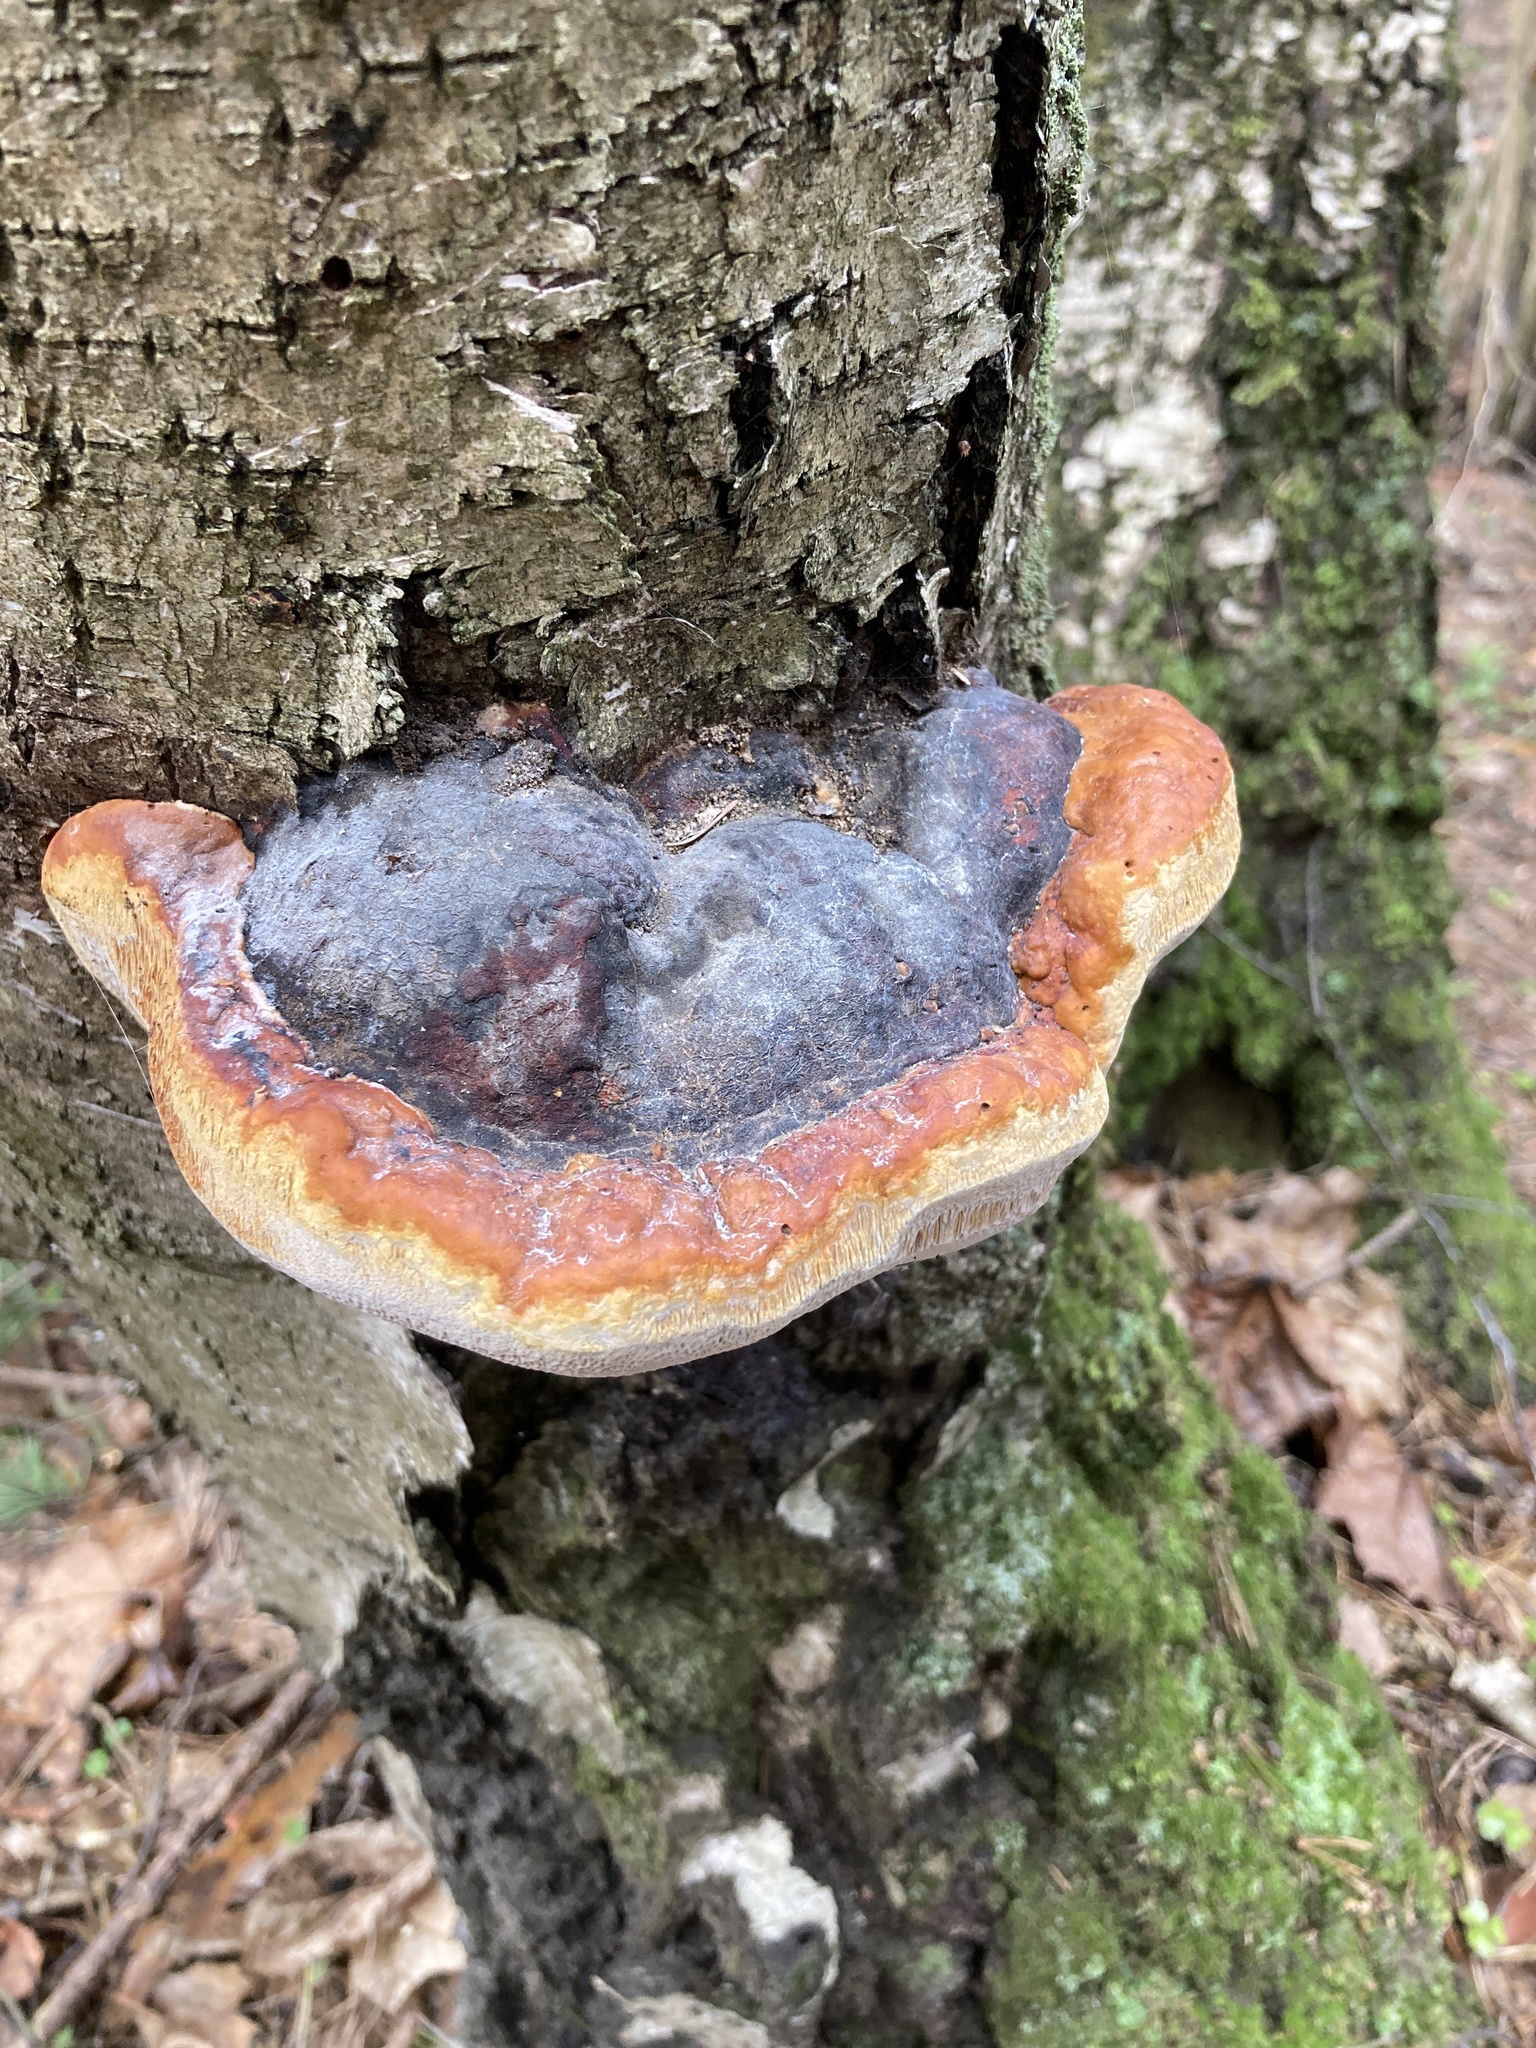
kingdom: Fungi
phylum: Basidiomycota
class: Agaricomycetes
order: Polyporales
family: Fomitopsidaceae
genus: Fomitopsis
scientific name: Fomitopsis pinicola
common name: Red-belted bracket
